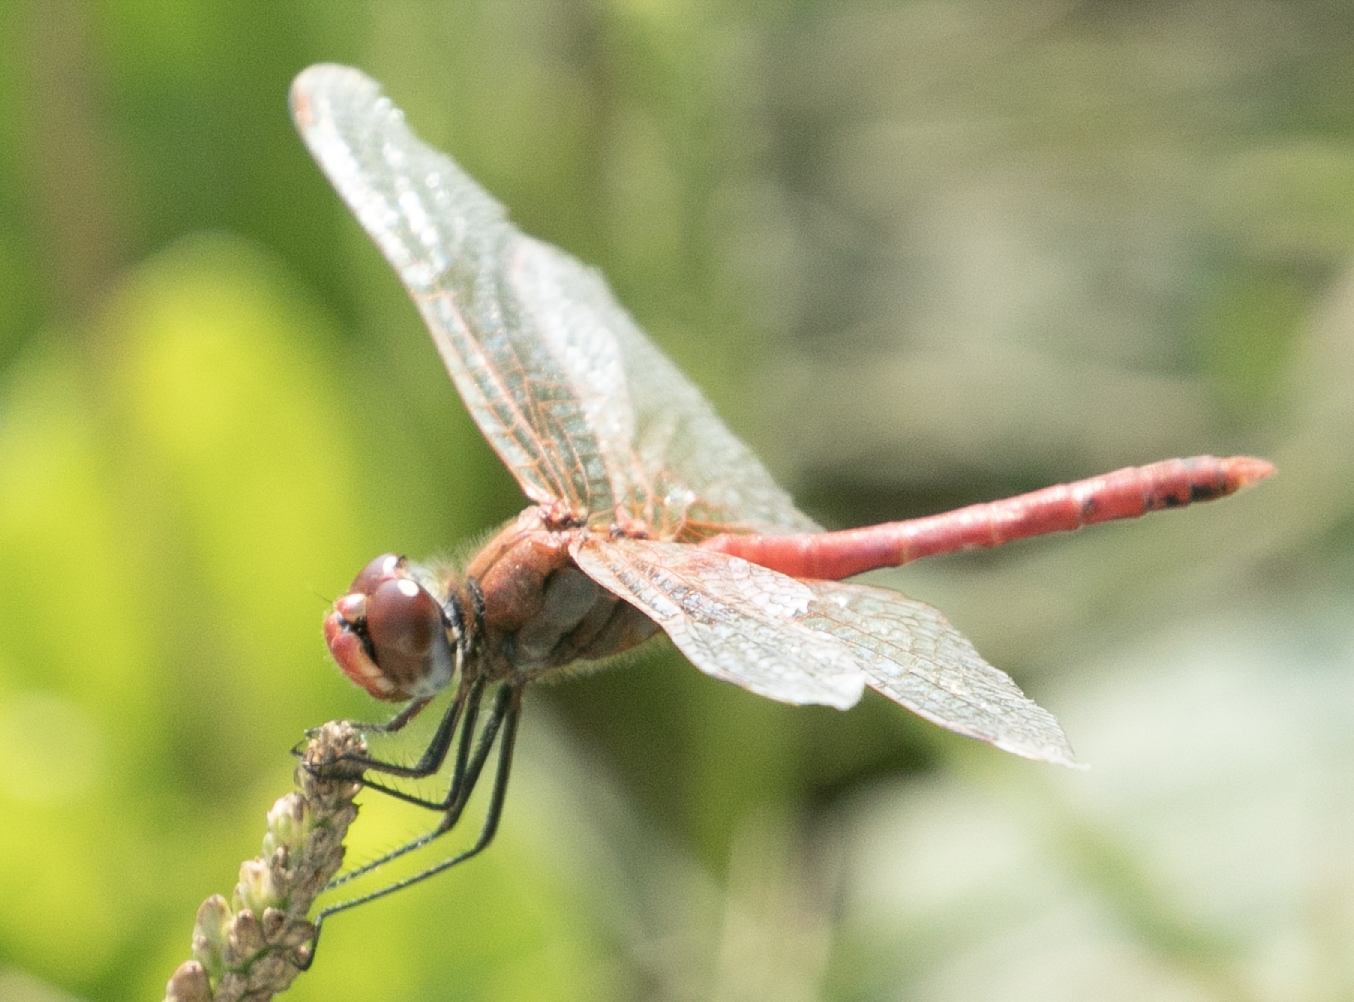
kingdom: Animalia
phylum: Arthropoda
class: Insecta
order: Odonata
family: Libellulidae
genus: Sympetrum
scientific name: Sympetrum fonscolombii
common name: Red-veined darter
